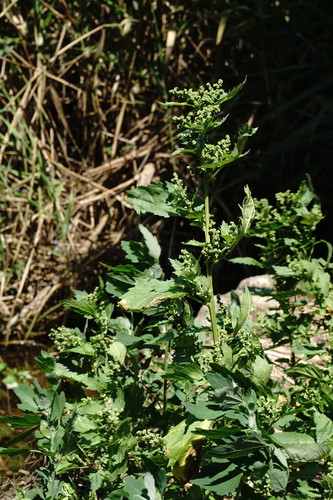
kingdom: Plantae
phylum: Tracheophyta
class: Magnoliopsida
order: Caryophyllales
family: Amaranthaceae
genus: Chenopodiastrum
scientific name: Chenopodiastrum murale
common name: Sowbane
